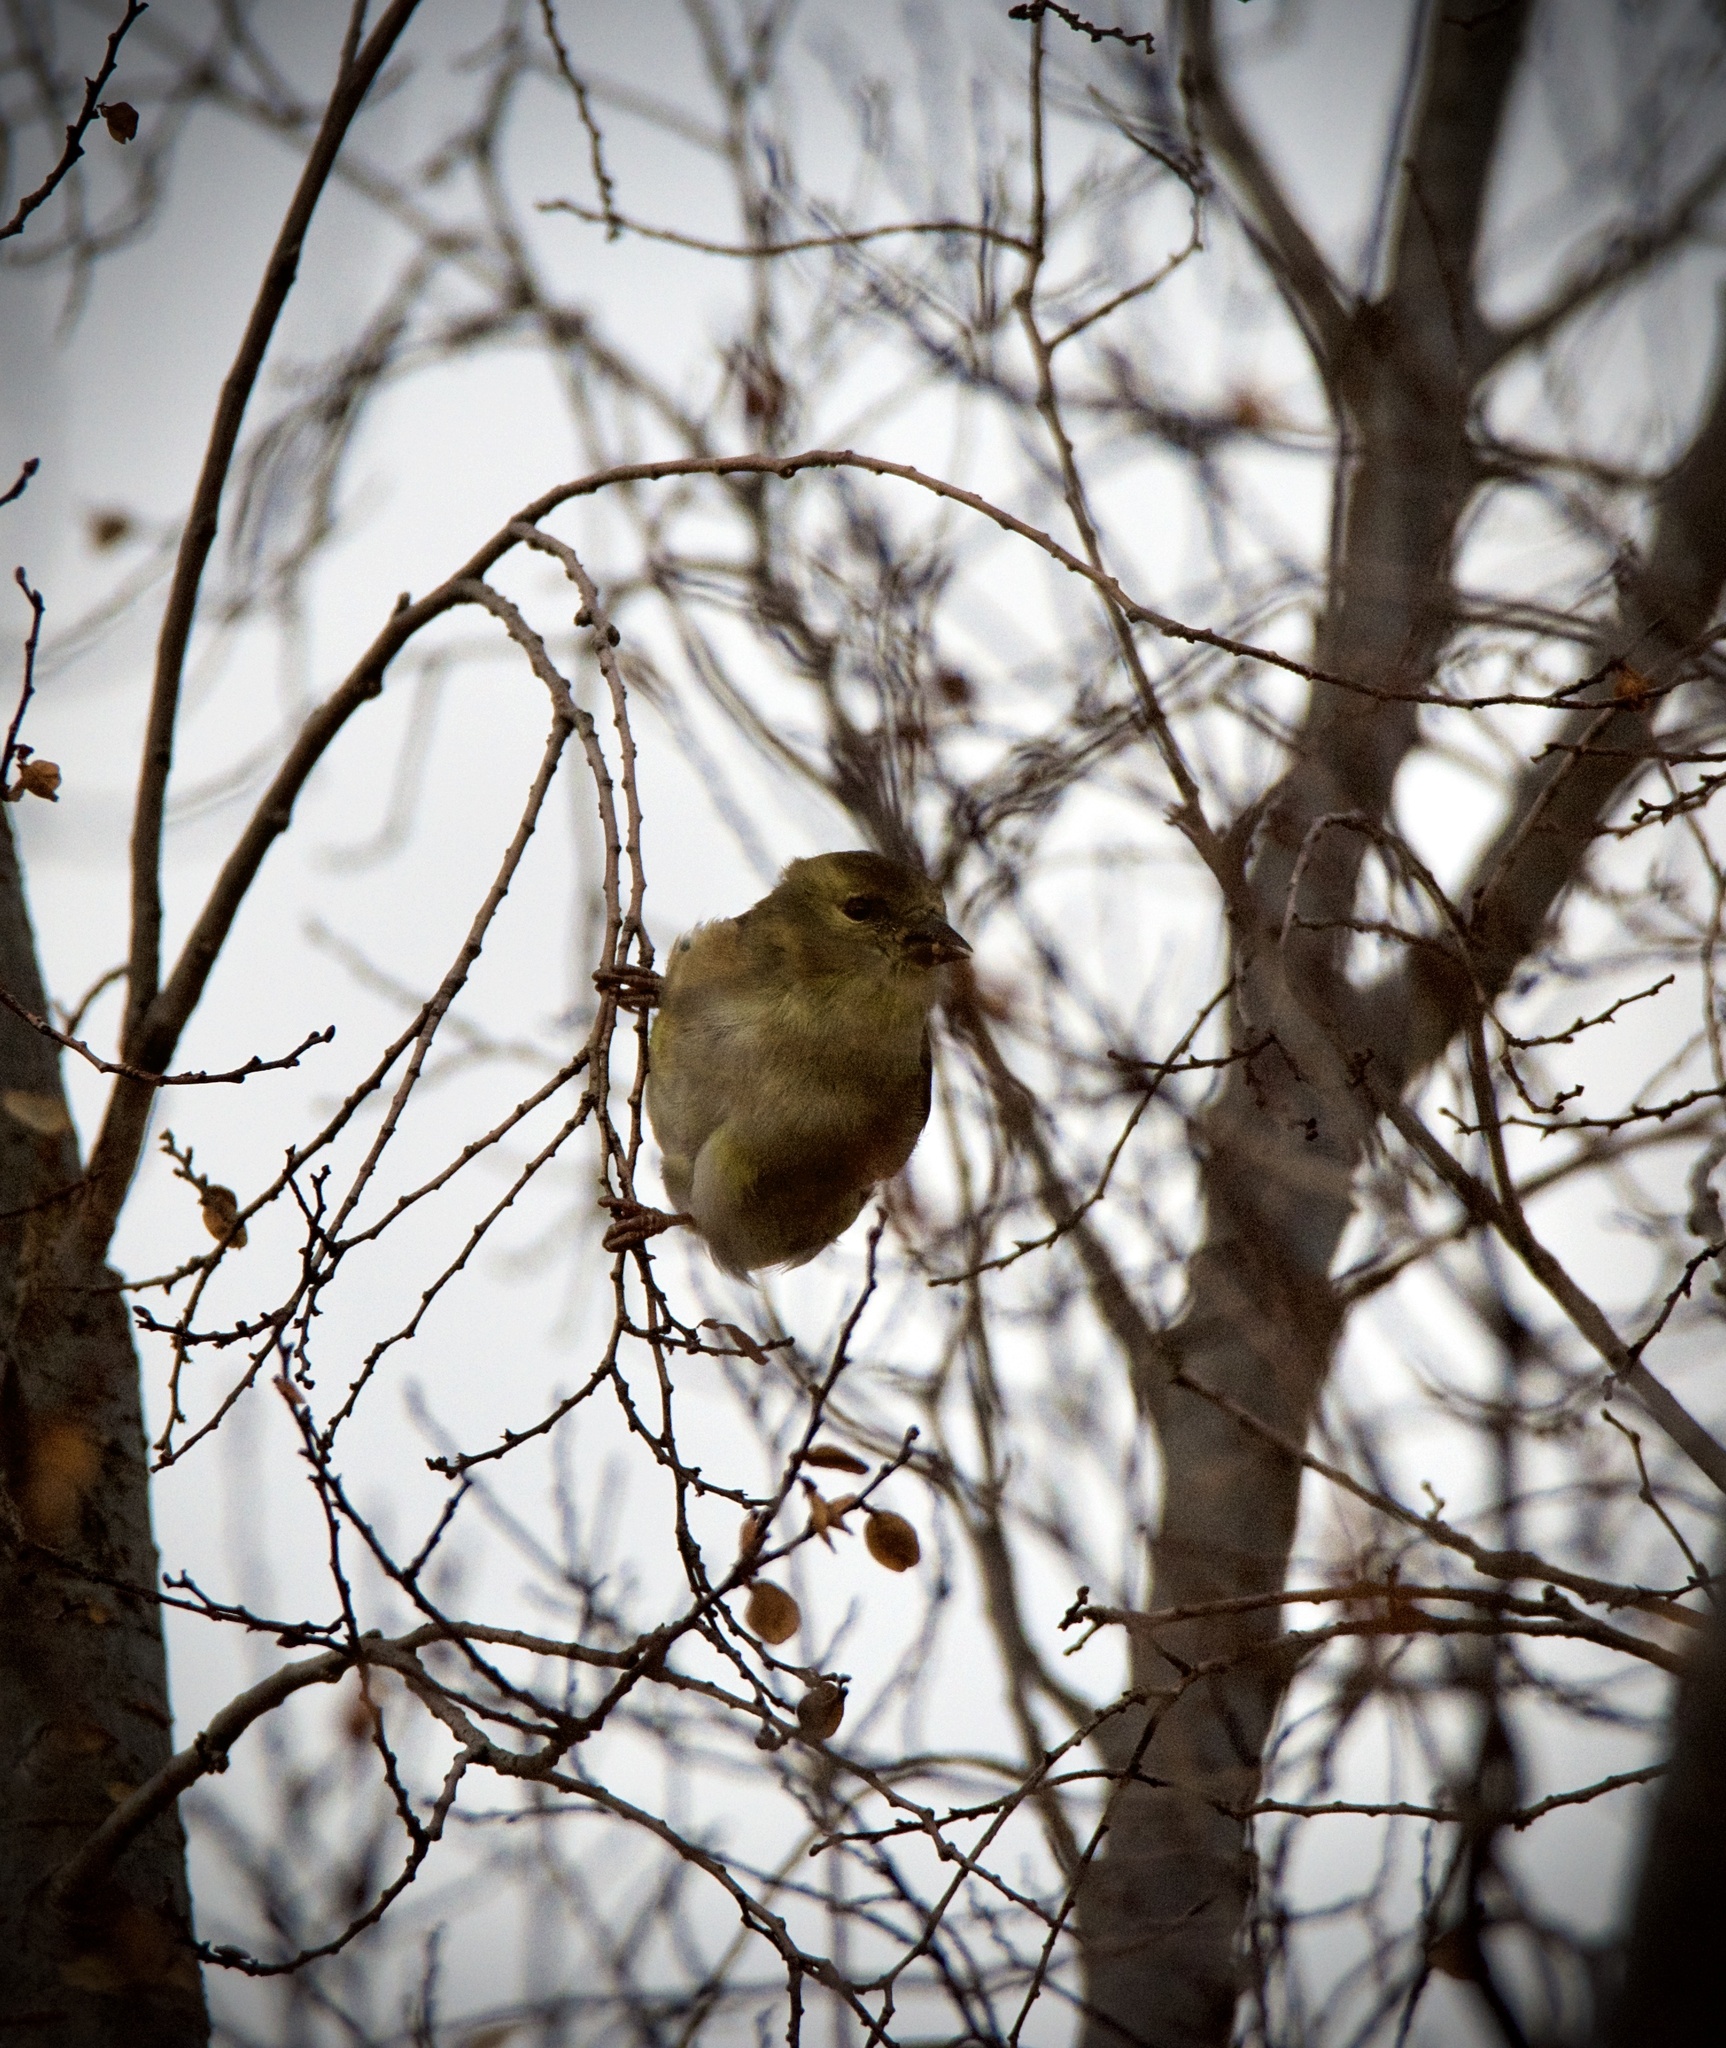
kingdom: Animalia
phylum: Chordata
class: Aves
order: Passeriformes
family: Fringillidae
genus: Spinus
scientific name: Spinus tristis
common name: American goldfinch
